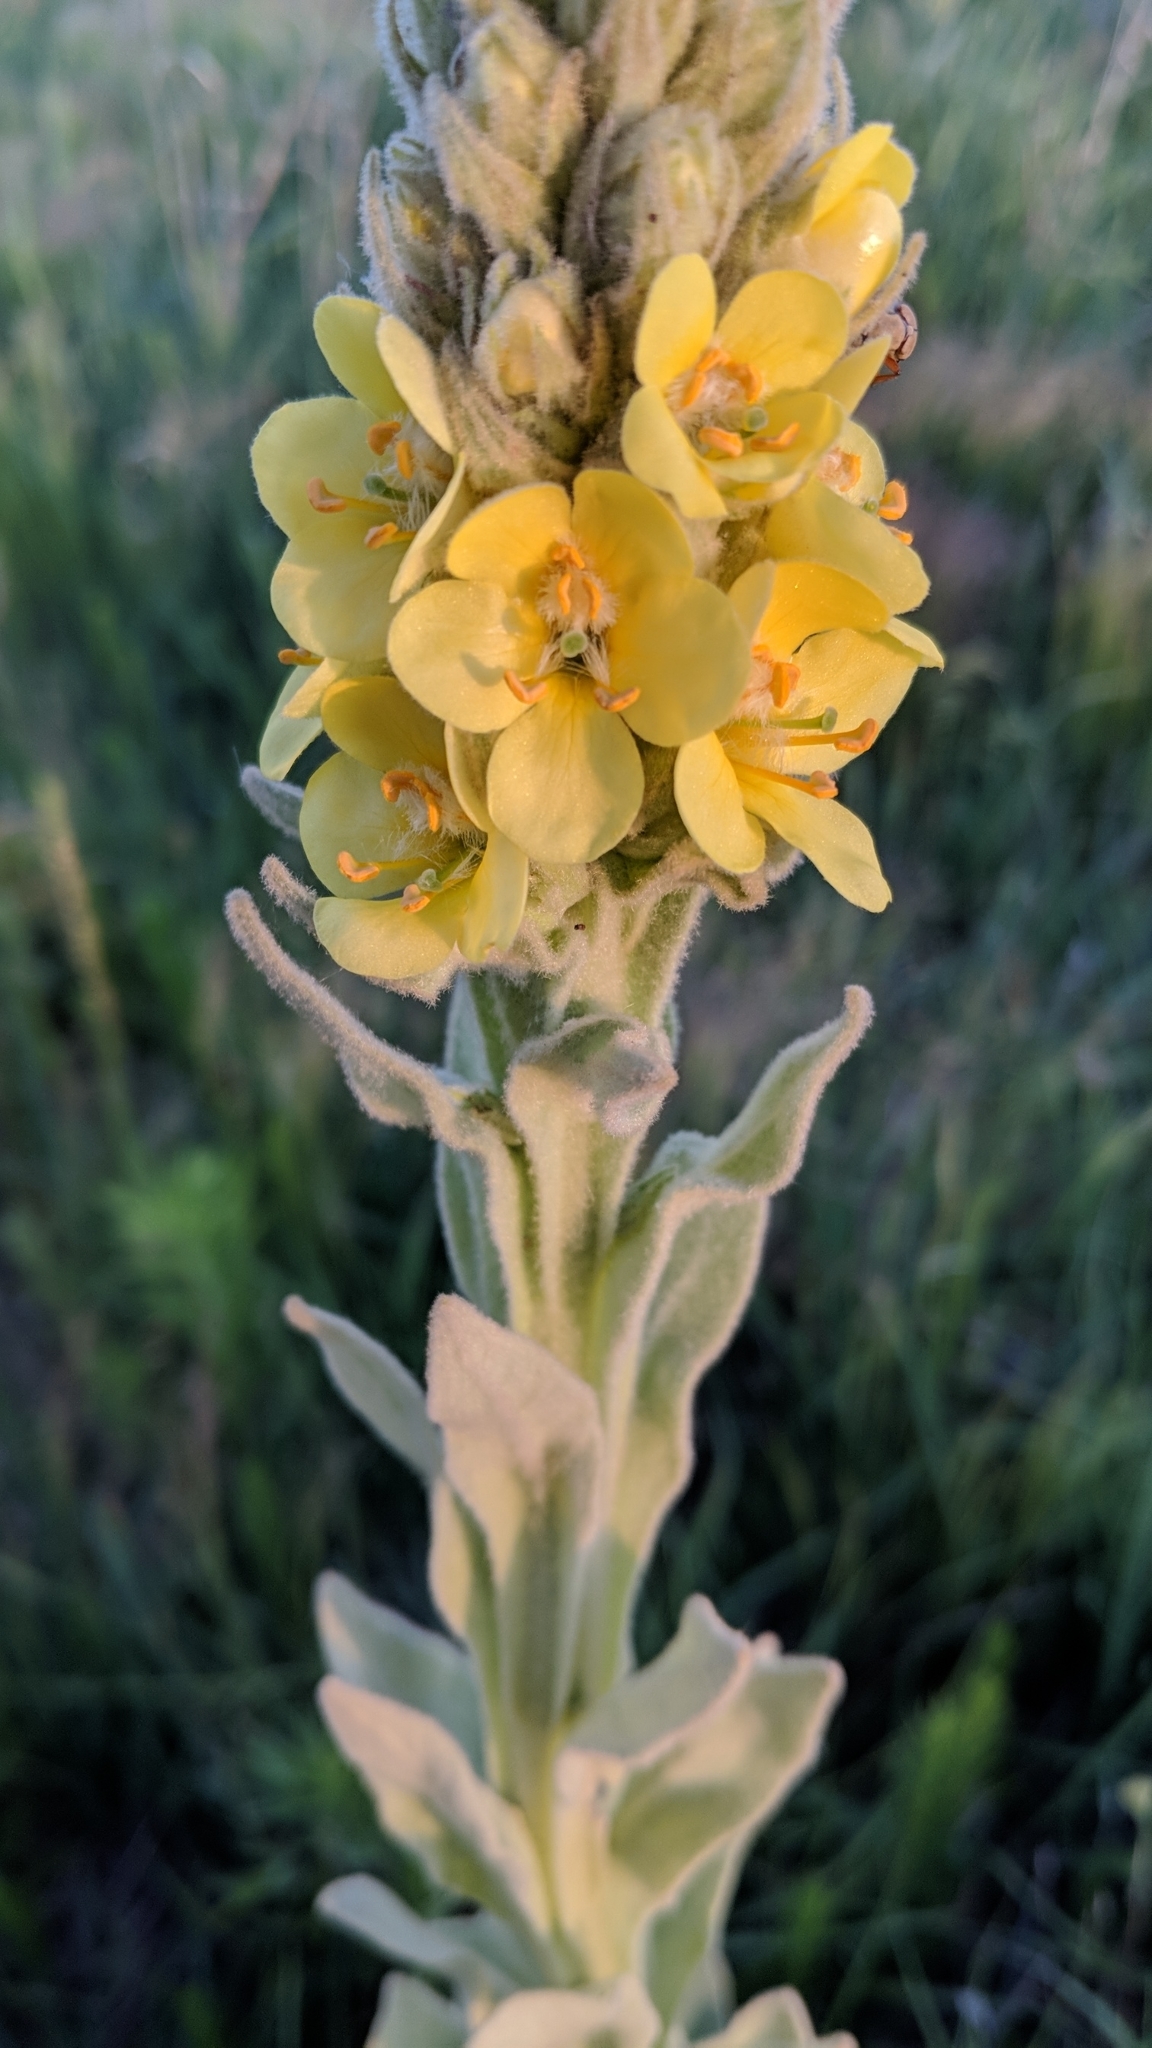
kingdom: Plantae
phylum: Tracheophyta
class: Magnoliopsida
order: Lamiales
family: Scrophulariaceae
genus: Verbascum
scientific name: Verbascum thapsus
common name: Common mullein
